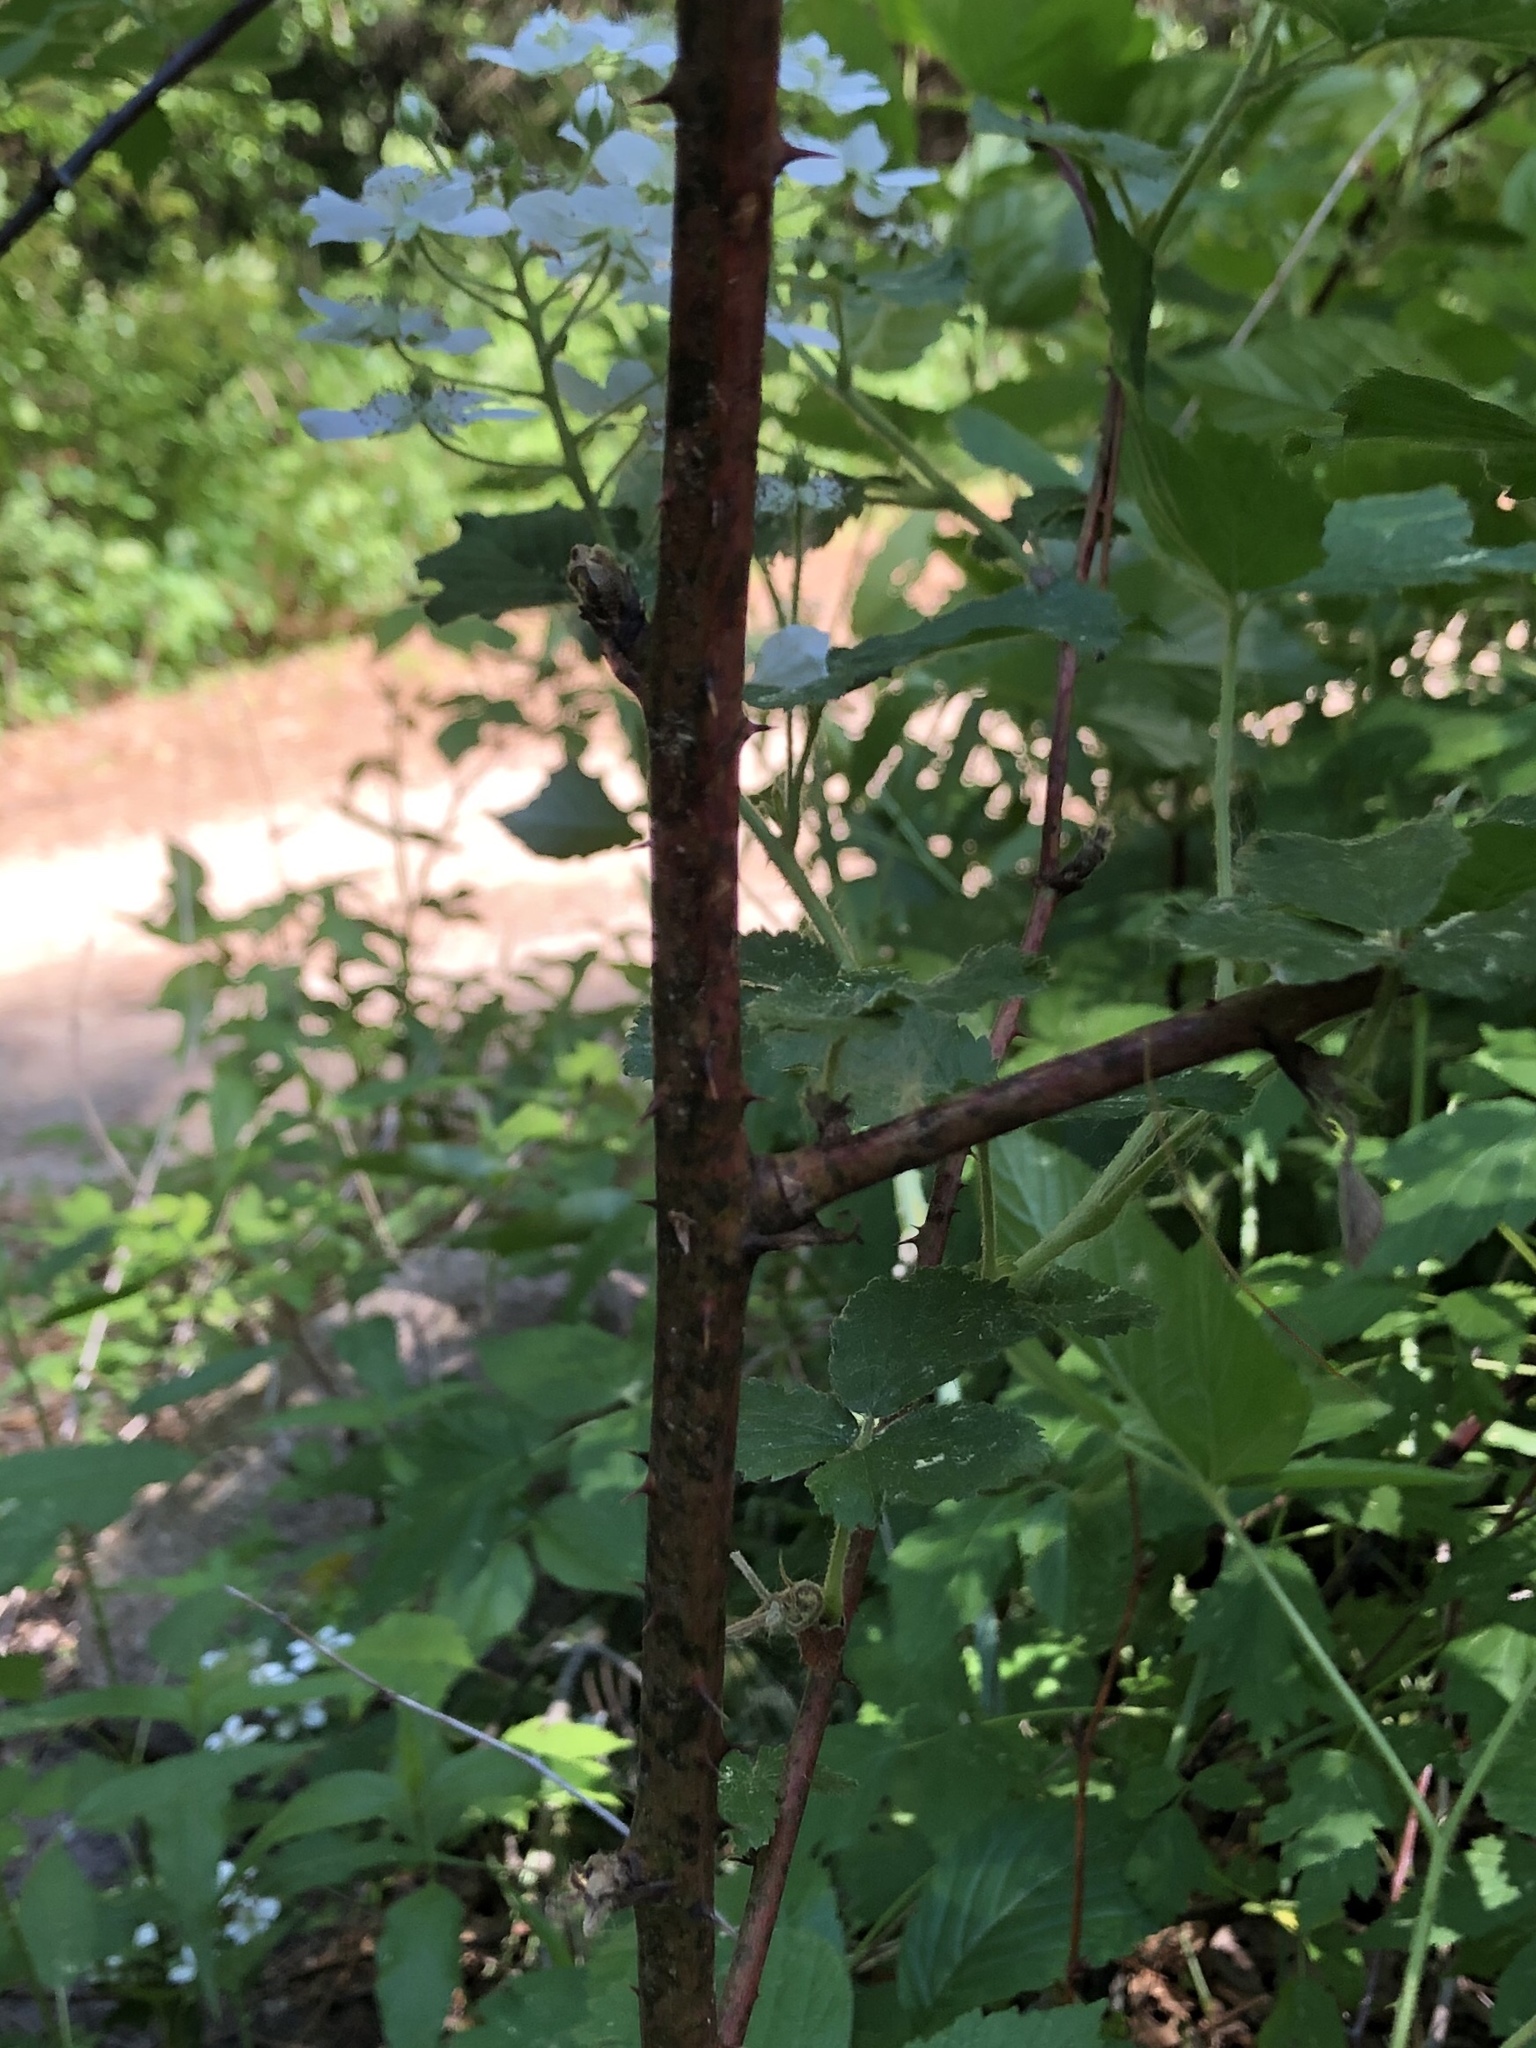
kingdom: Plantae
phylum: Tracheophyta
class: Magnoliopsida
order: Rosales
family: Rosaceae
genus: Rubus
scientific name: Rubus allegheniensis
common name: Allegheny blackberry
